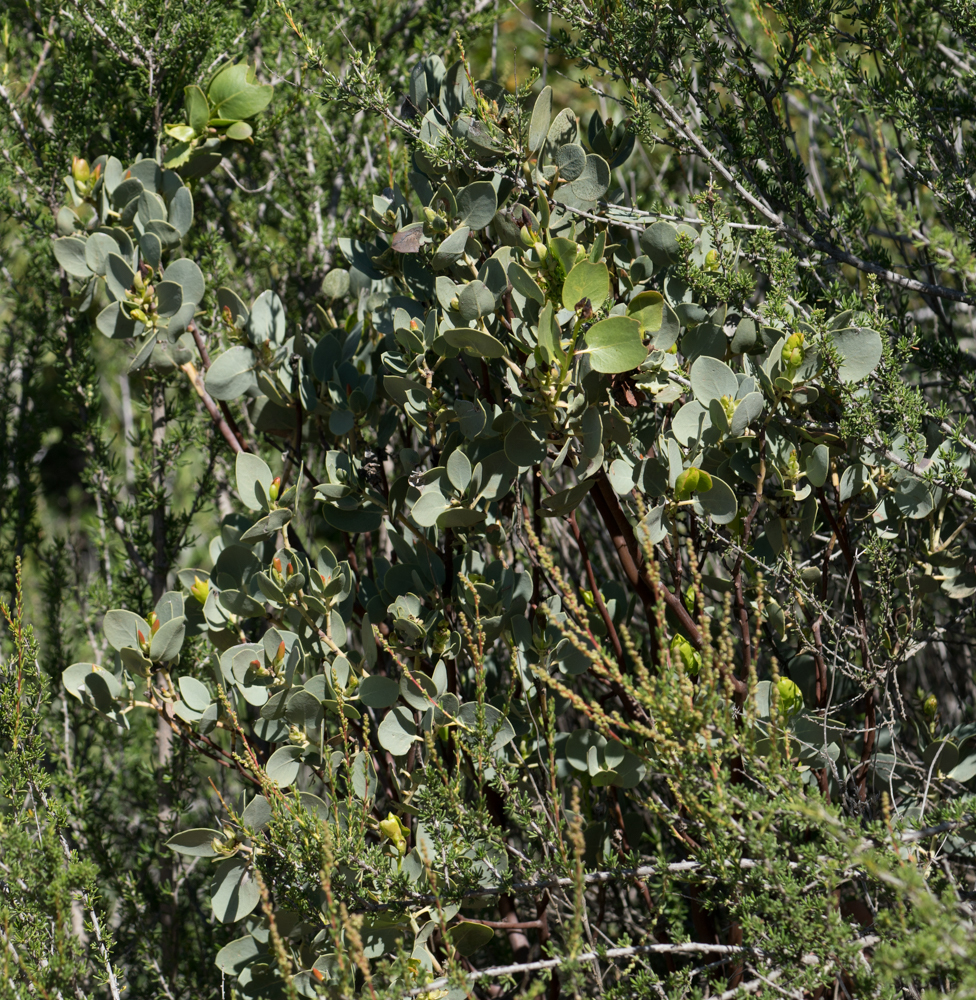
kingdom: Plantae
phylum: Tracheophyta
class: Magnoliopsida
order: Ericales
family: Ericaceae
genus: Arctostaphylos
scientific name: Arctostaphylos glauca
